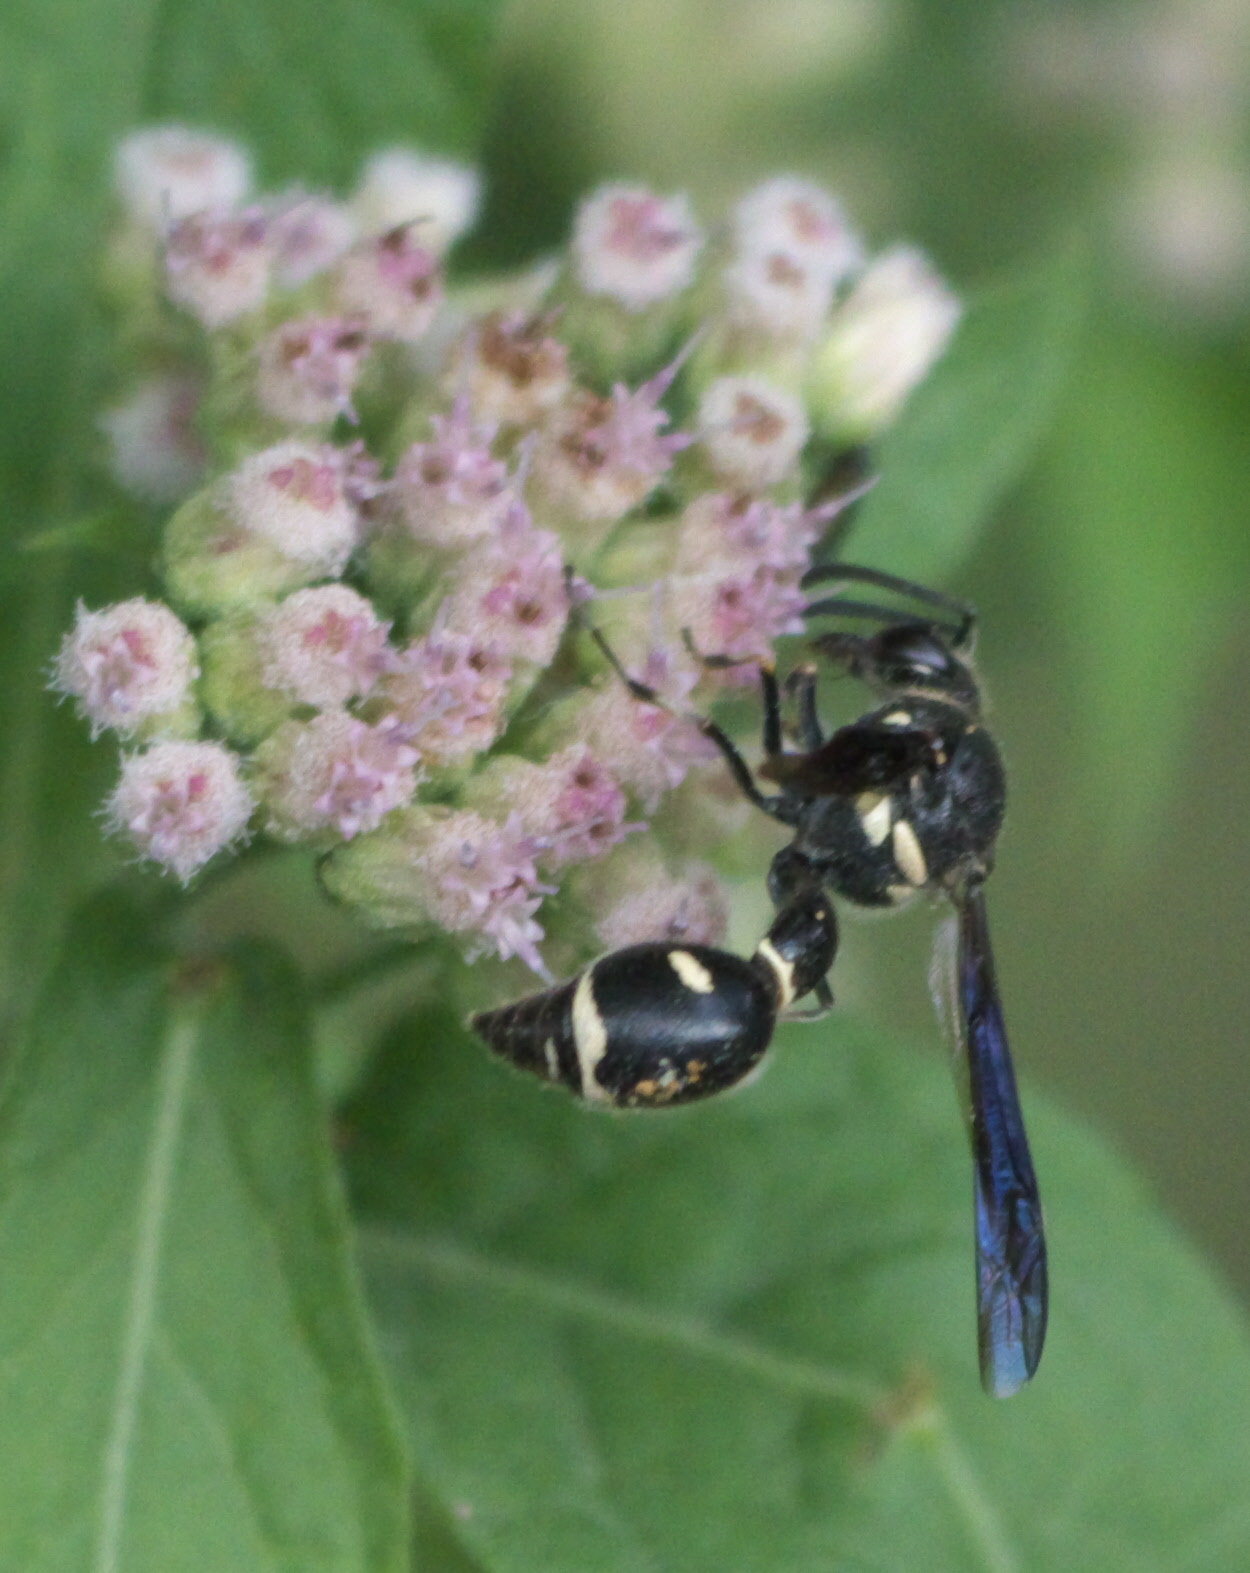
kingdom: Animalia
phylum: Arthropoda
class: Insecta
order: Hymenoptera
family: Vespidae
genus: Eumenes
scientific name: Eumenes fraternus
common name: Fraternal potter wasp
